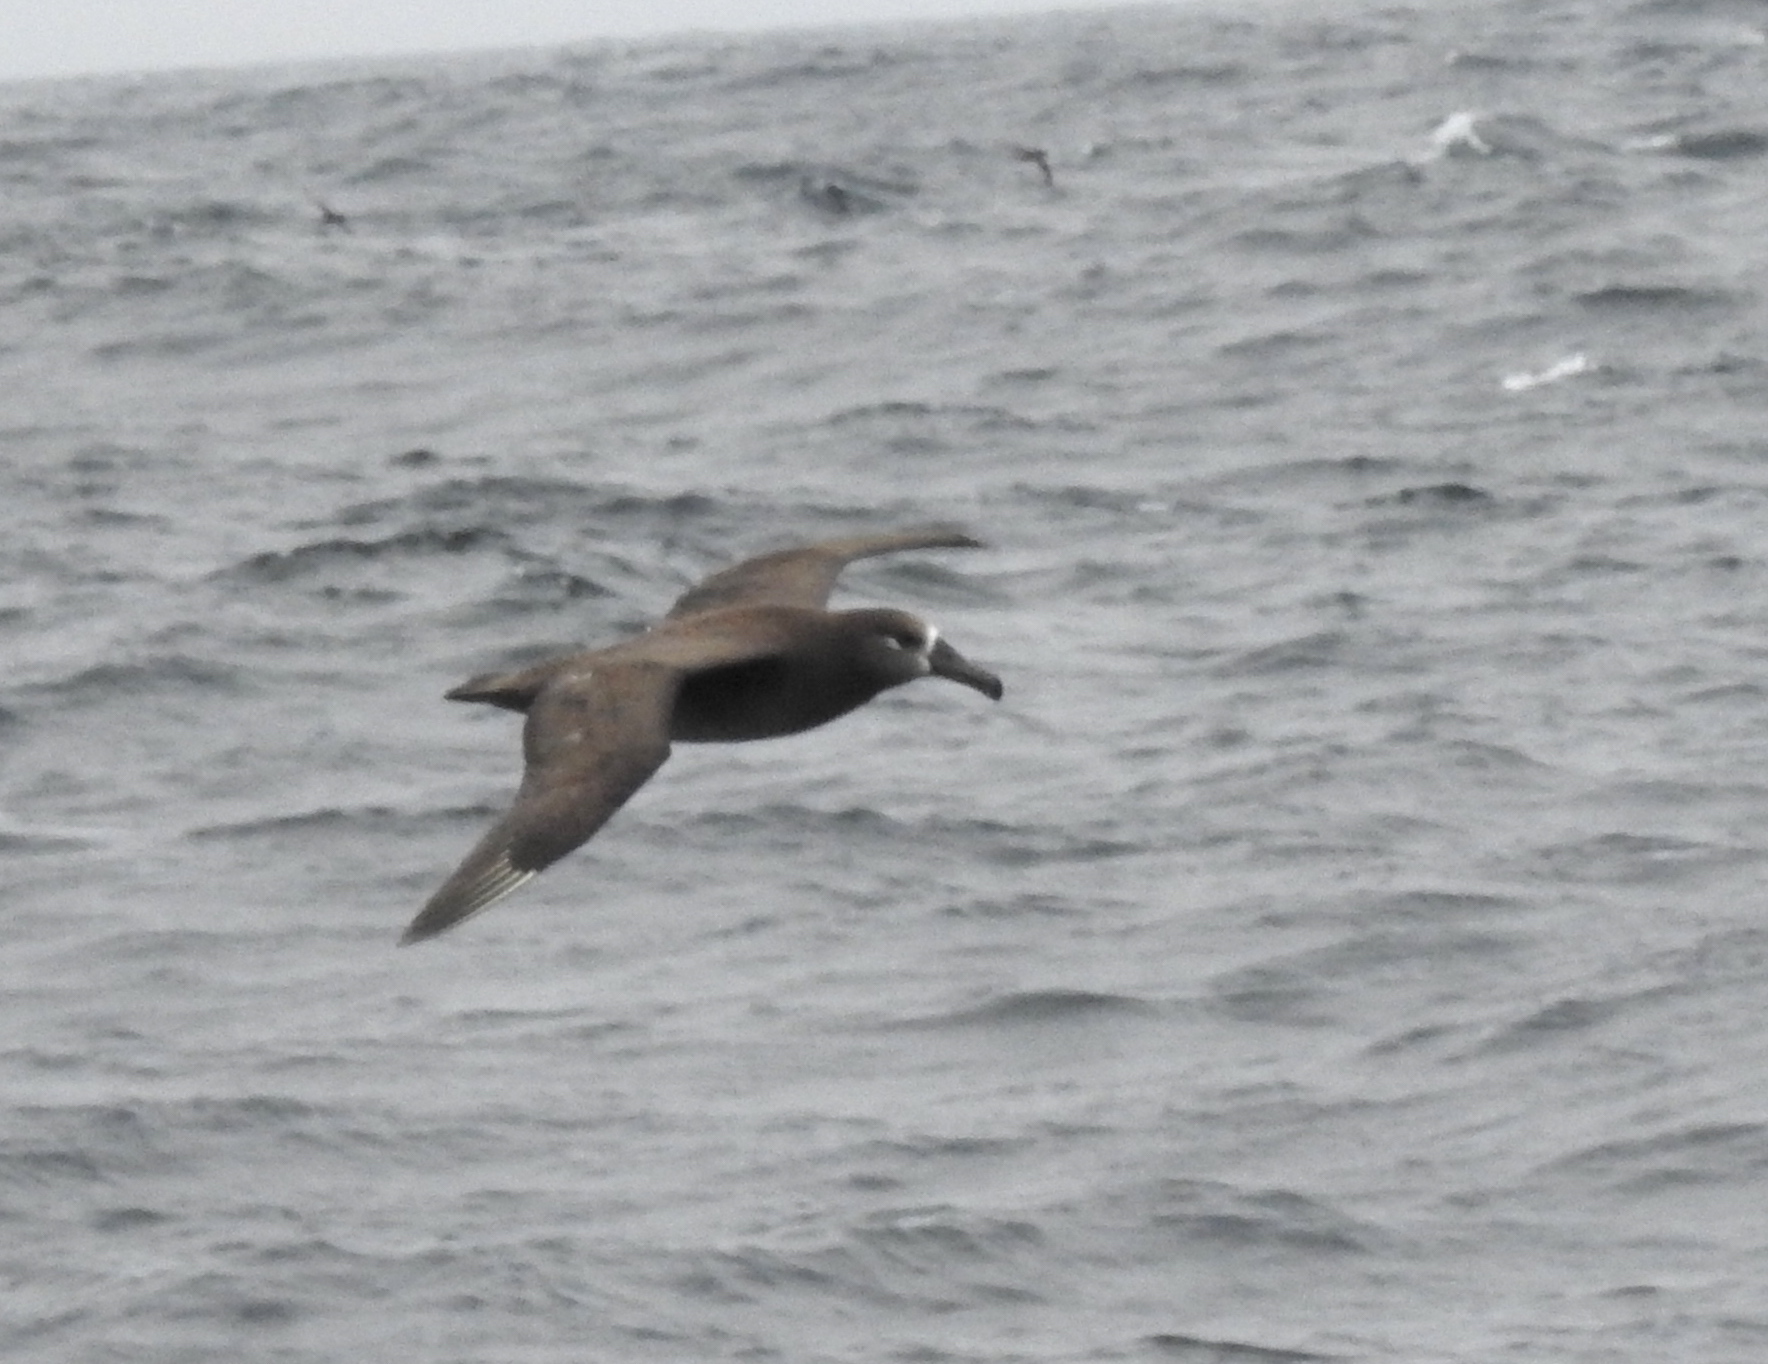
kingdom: Animalia
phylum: Chordata
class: Aves
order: Procellariiformes
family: Diomedeidae
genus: Phoebastria
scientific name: Phoebastria nigripes
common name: Black-footed albatross
